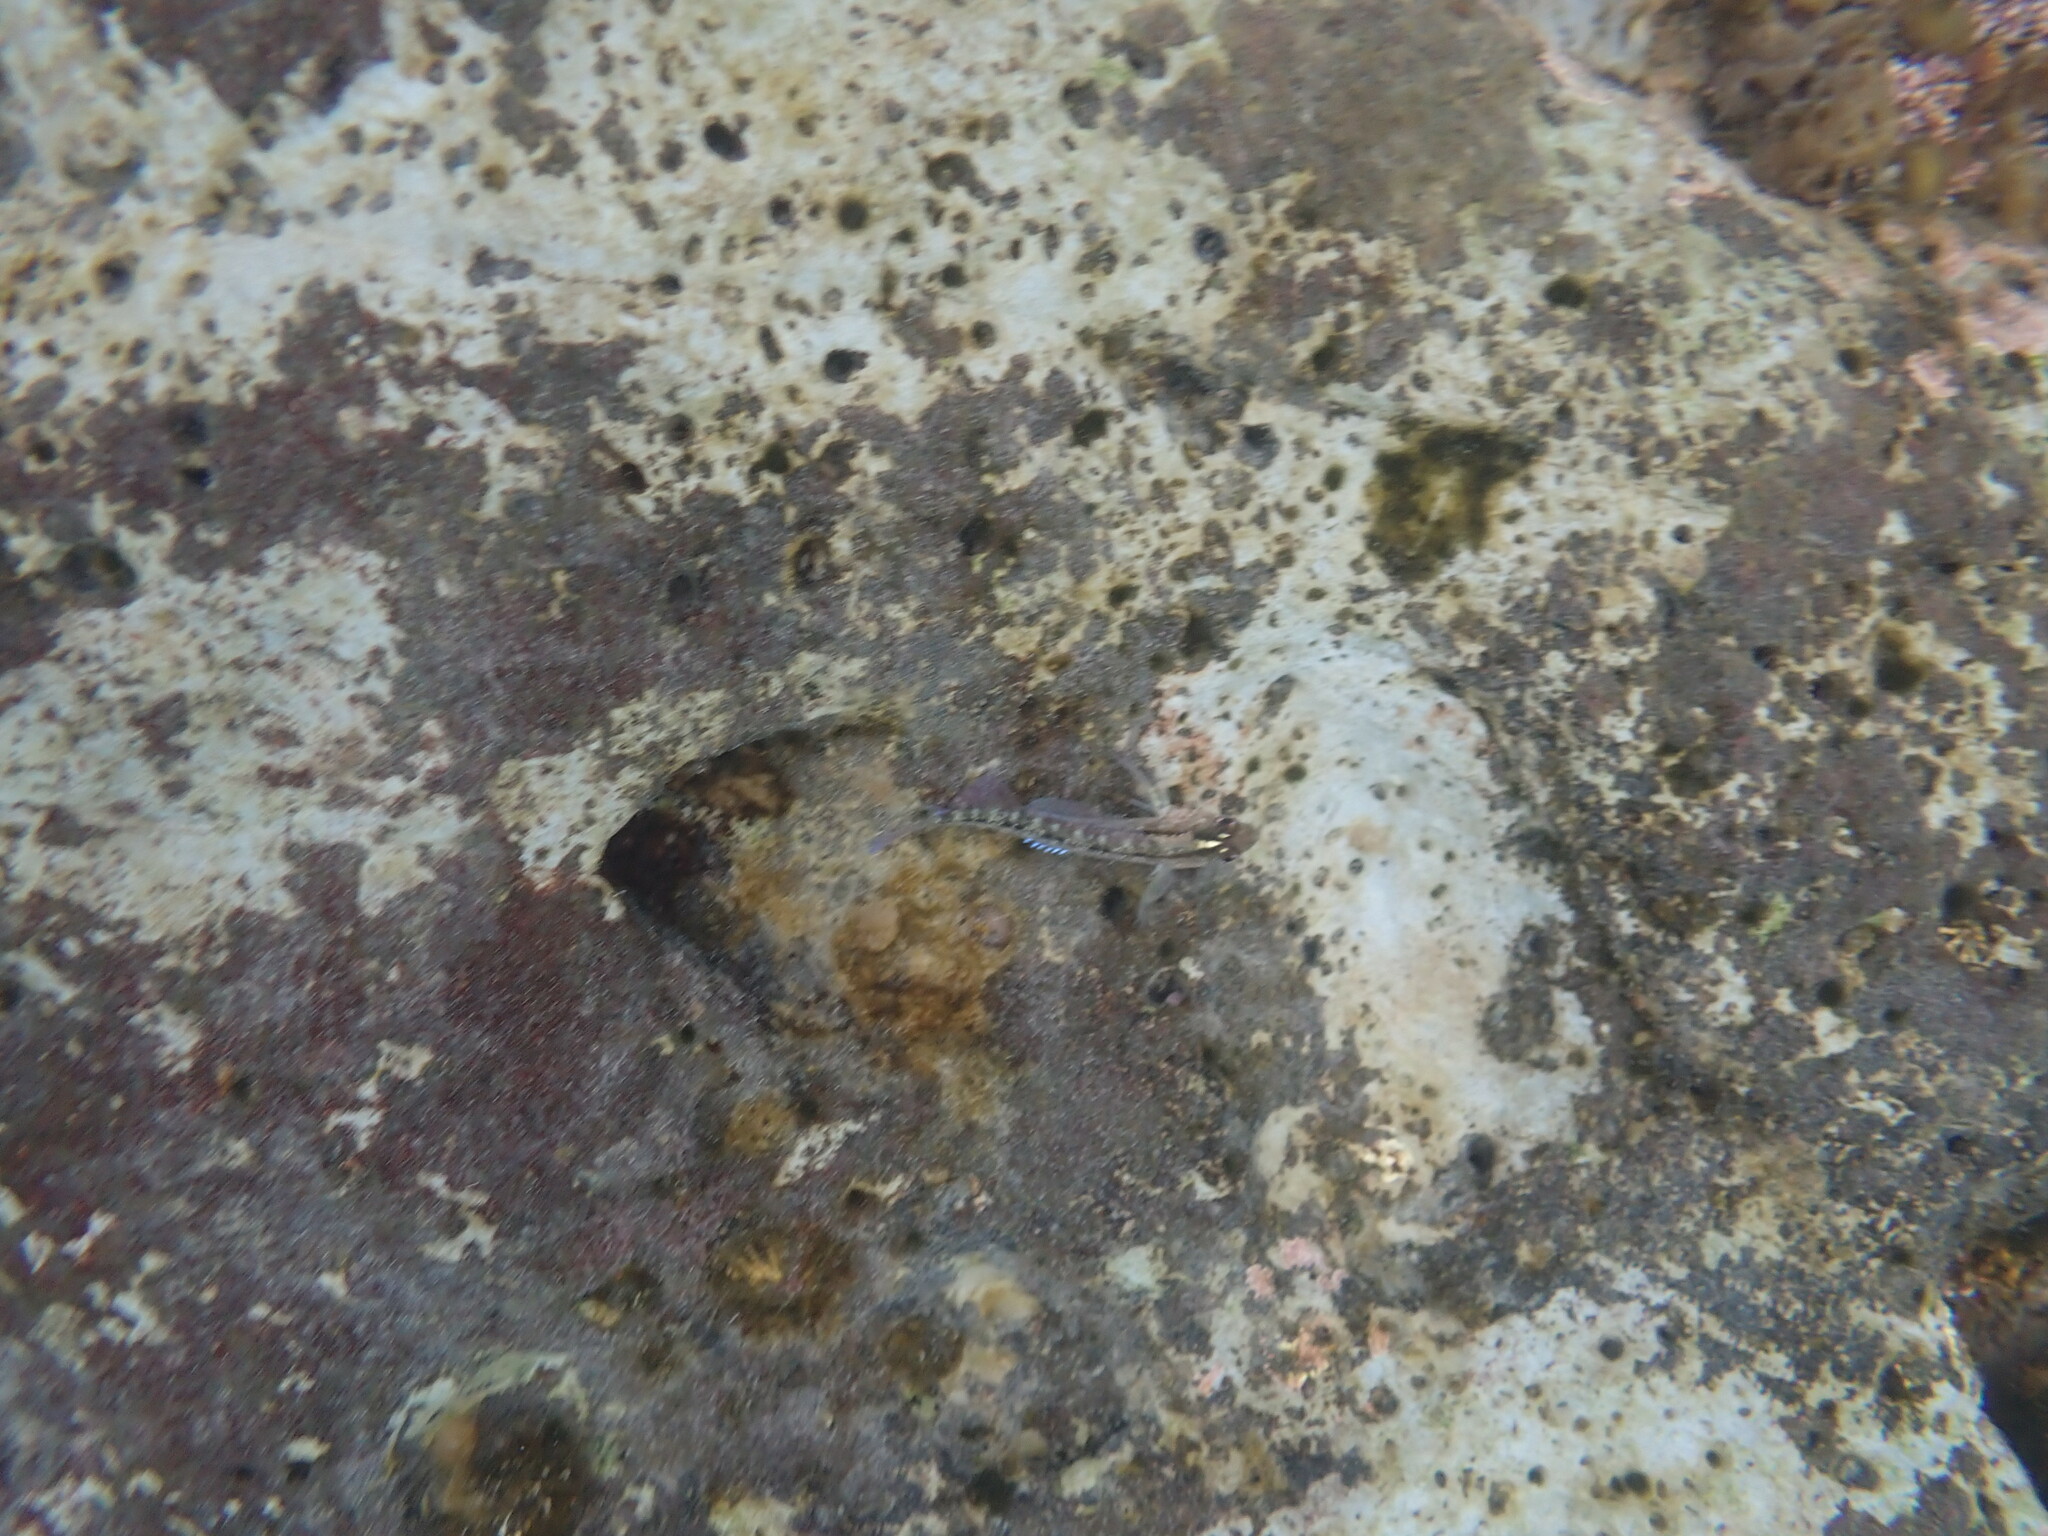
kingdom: Animalia
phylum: Chordata
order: Perciformes
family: Tripterygiidae
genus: Forsterygion
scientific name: Forsterygion lapillum
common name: Common triplefin
